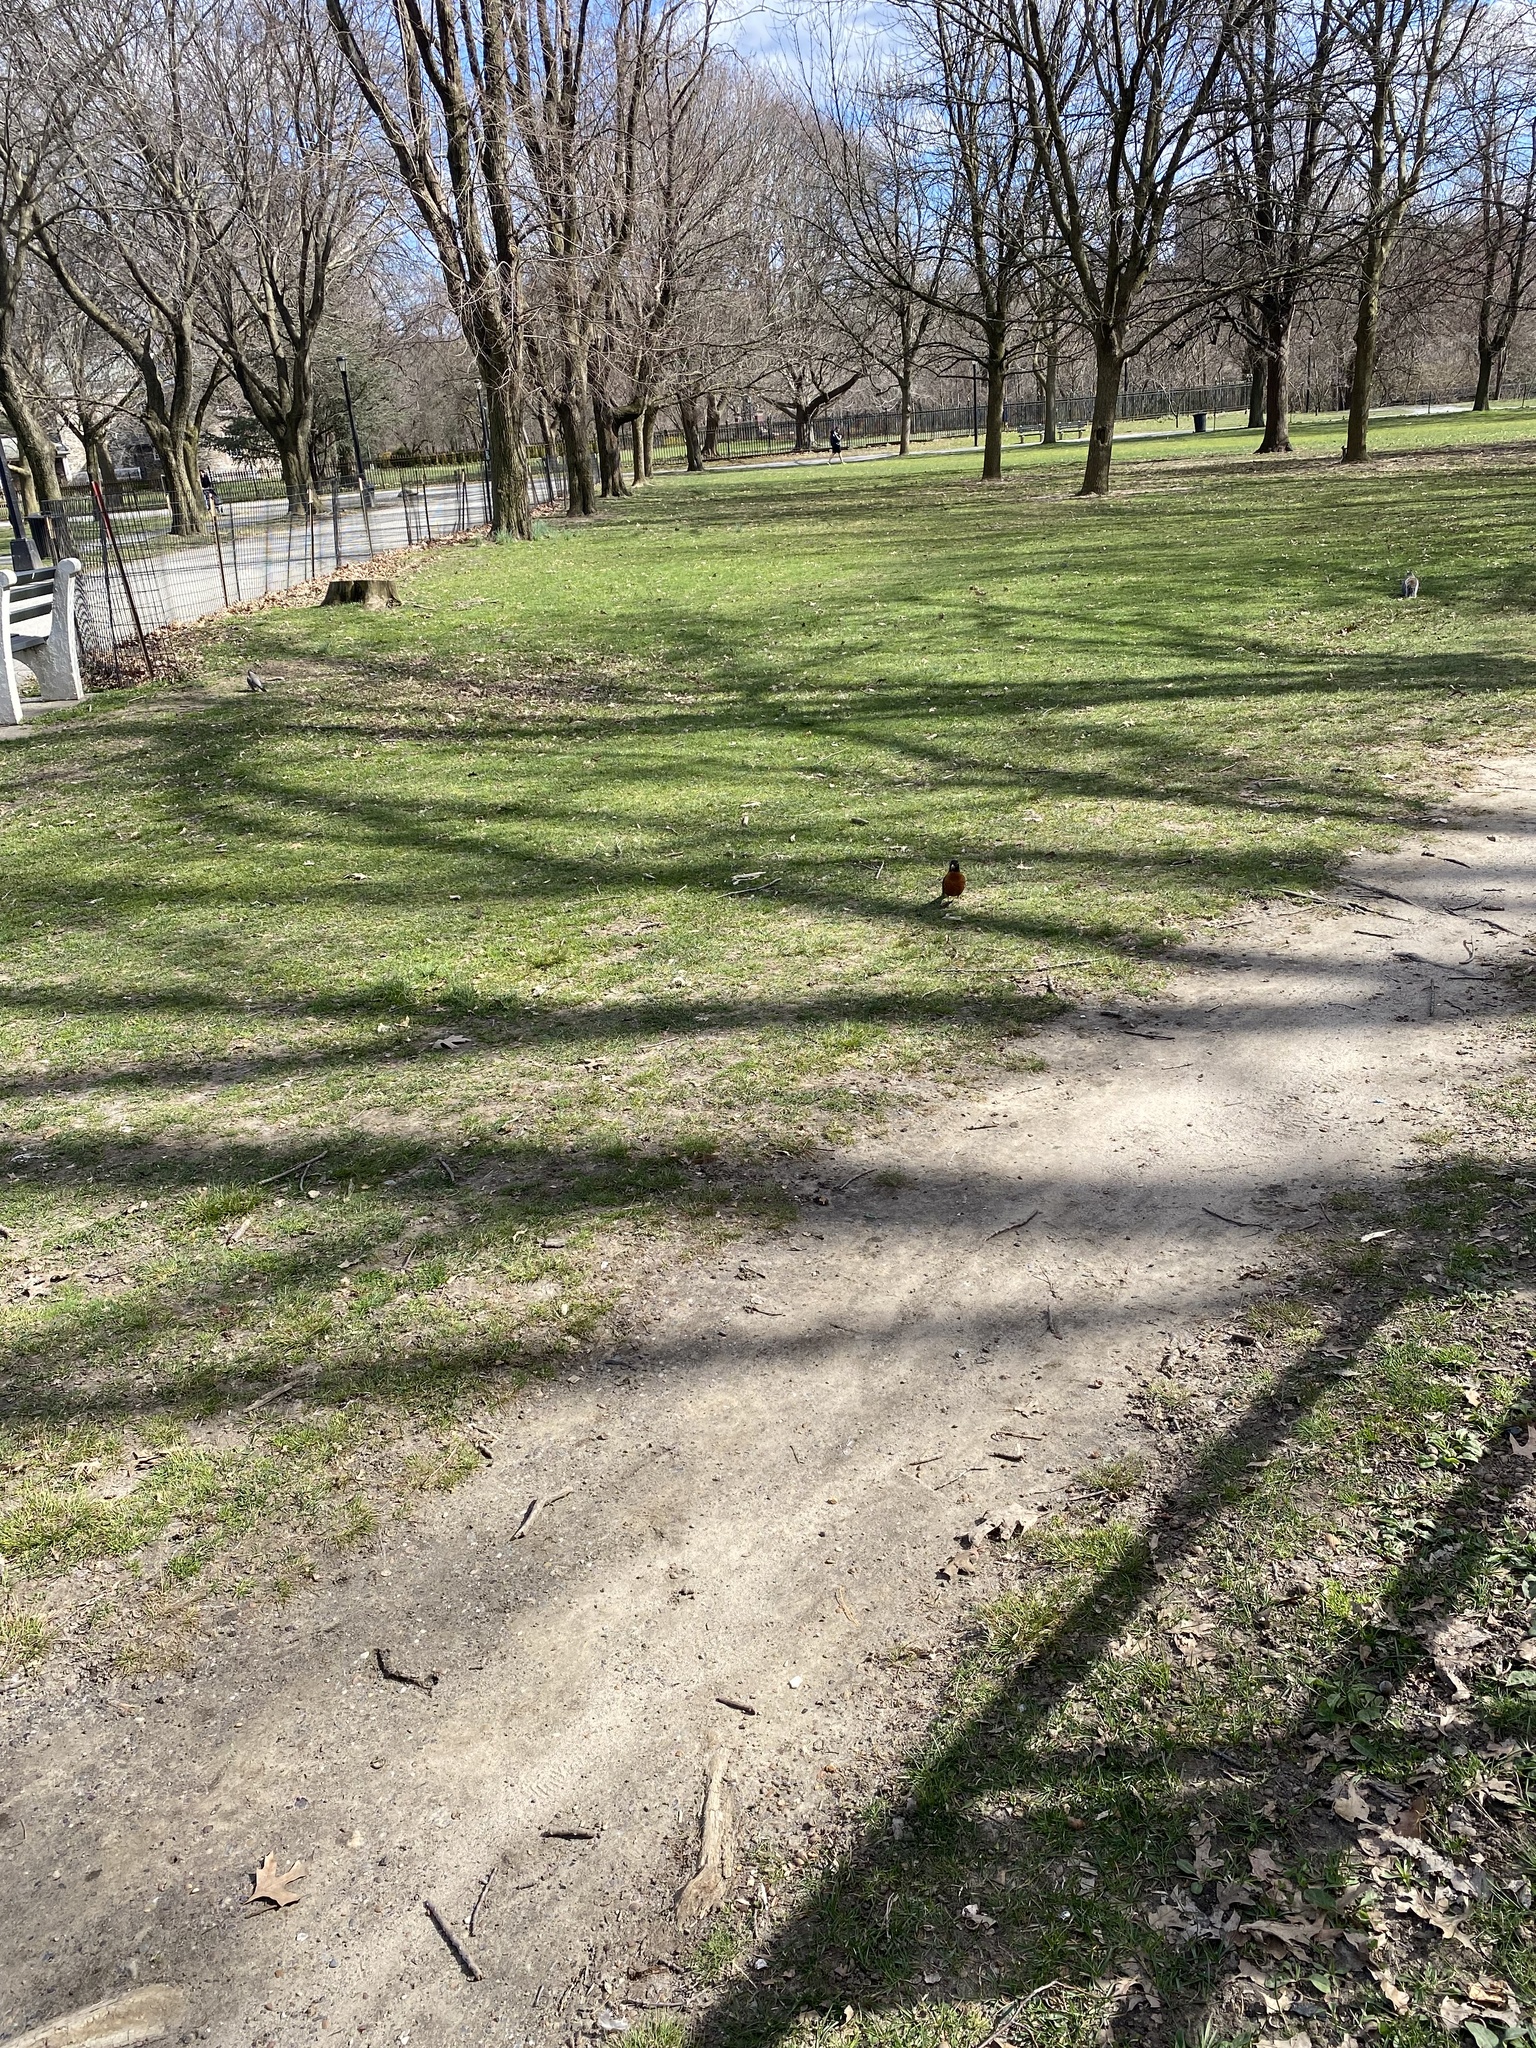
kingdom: Animalia
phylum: Chordata
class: Aves
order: Passeriformes
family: Turdidae
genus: Turdus
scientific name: Turdus migratorius
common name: American robin
